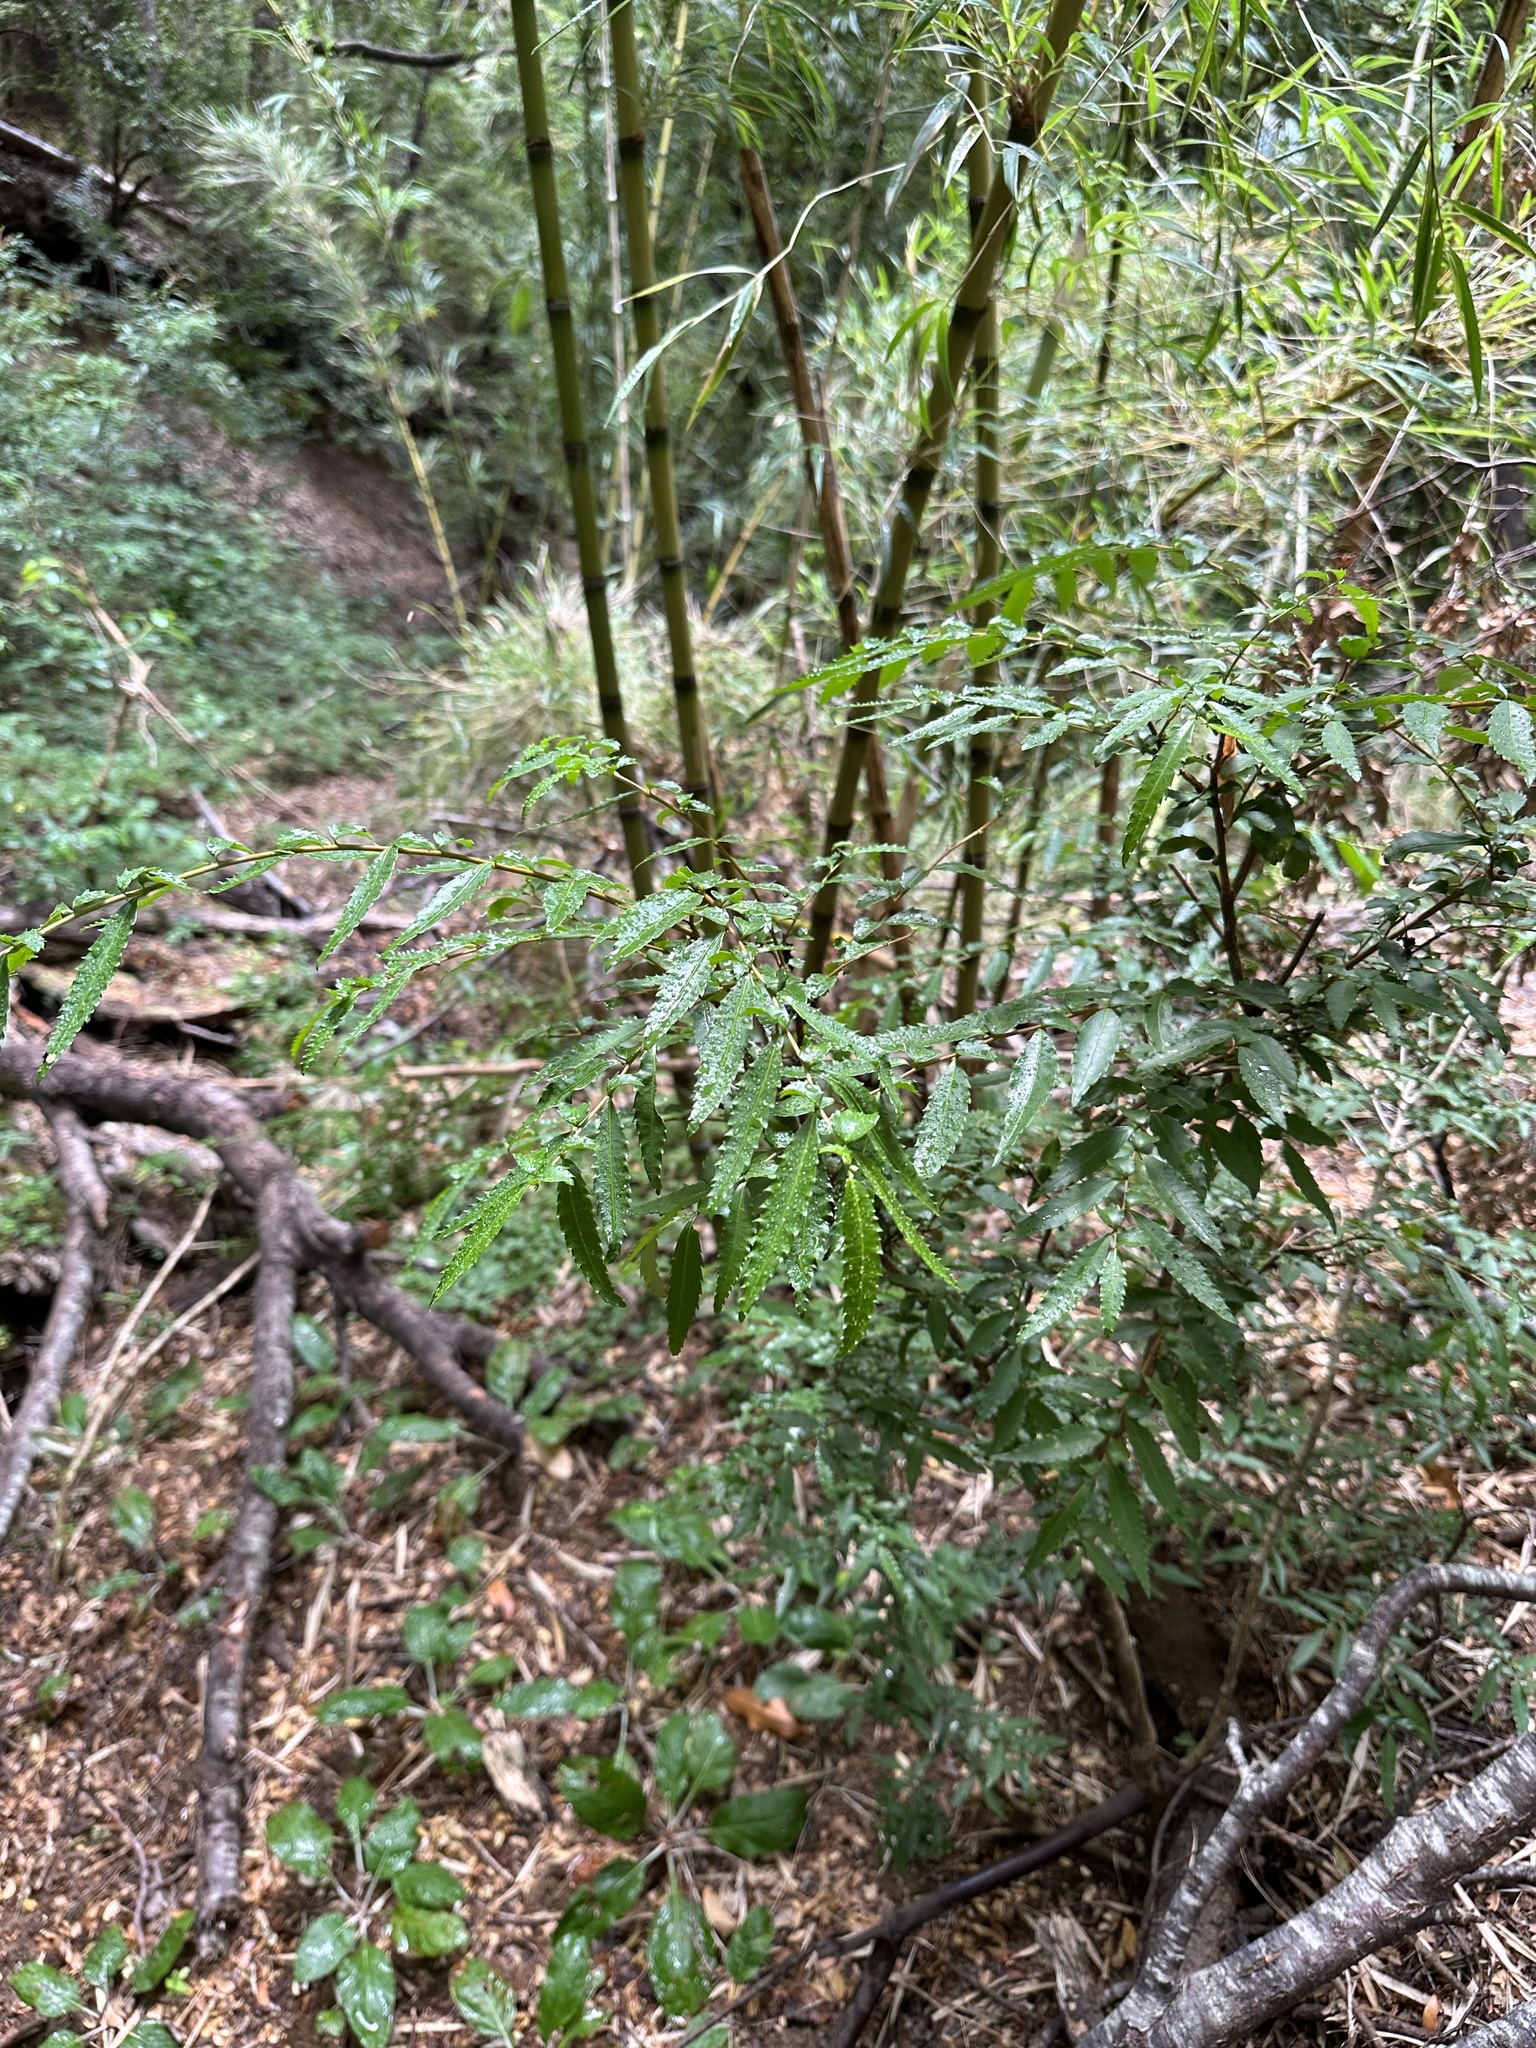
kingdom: Plantae
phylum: Tracheophyta
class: Magnoliopsida
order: Malpighiales
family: Salicaceae
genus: Azara
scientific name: Azara lanceolata
